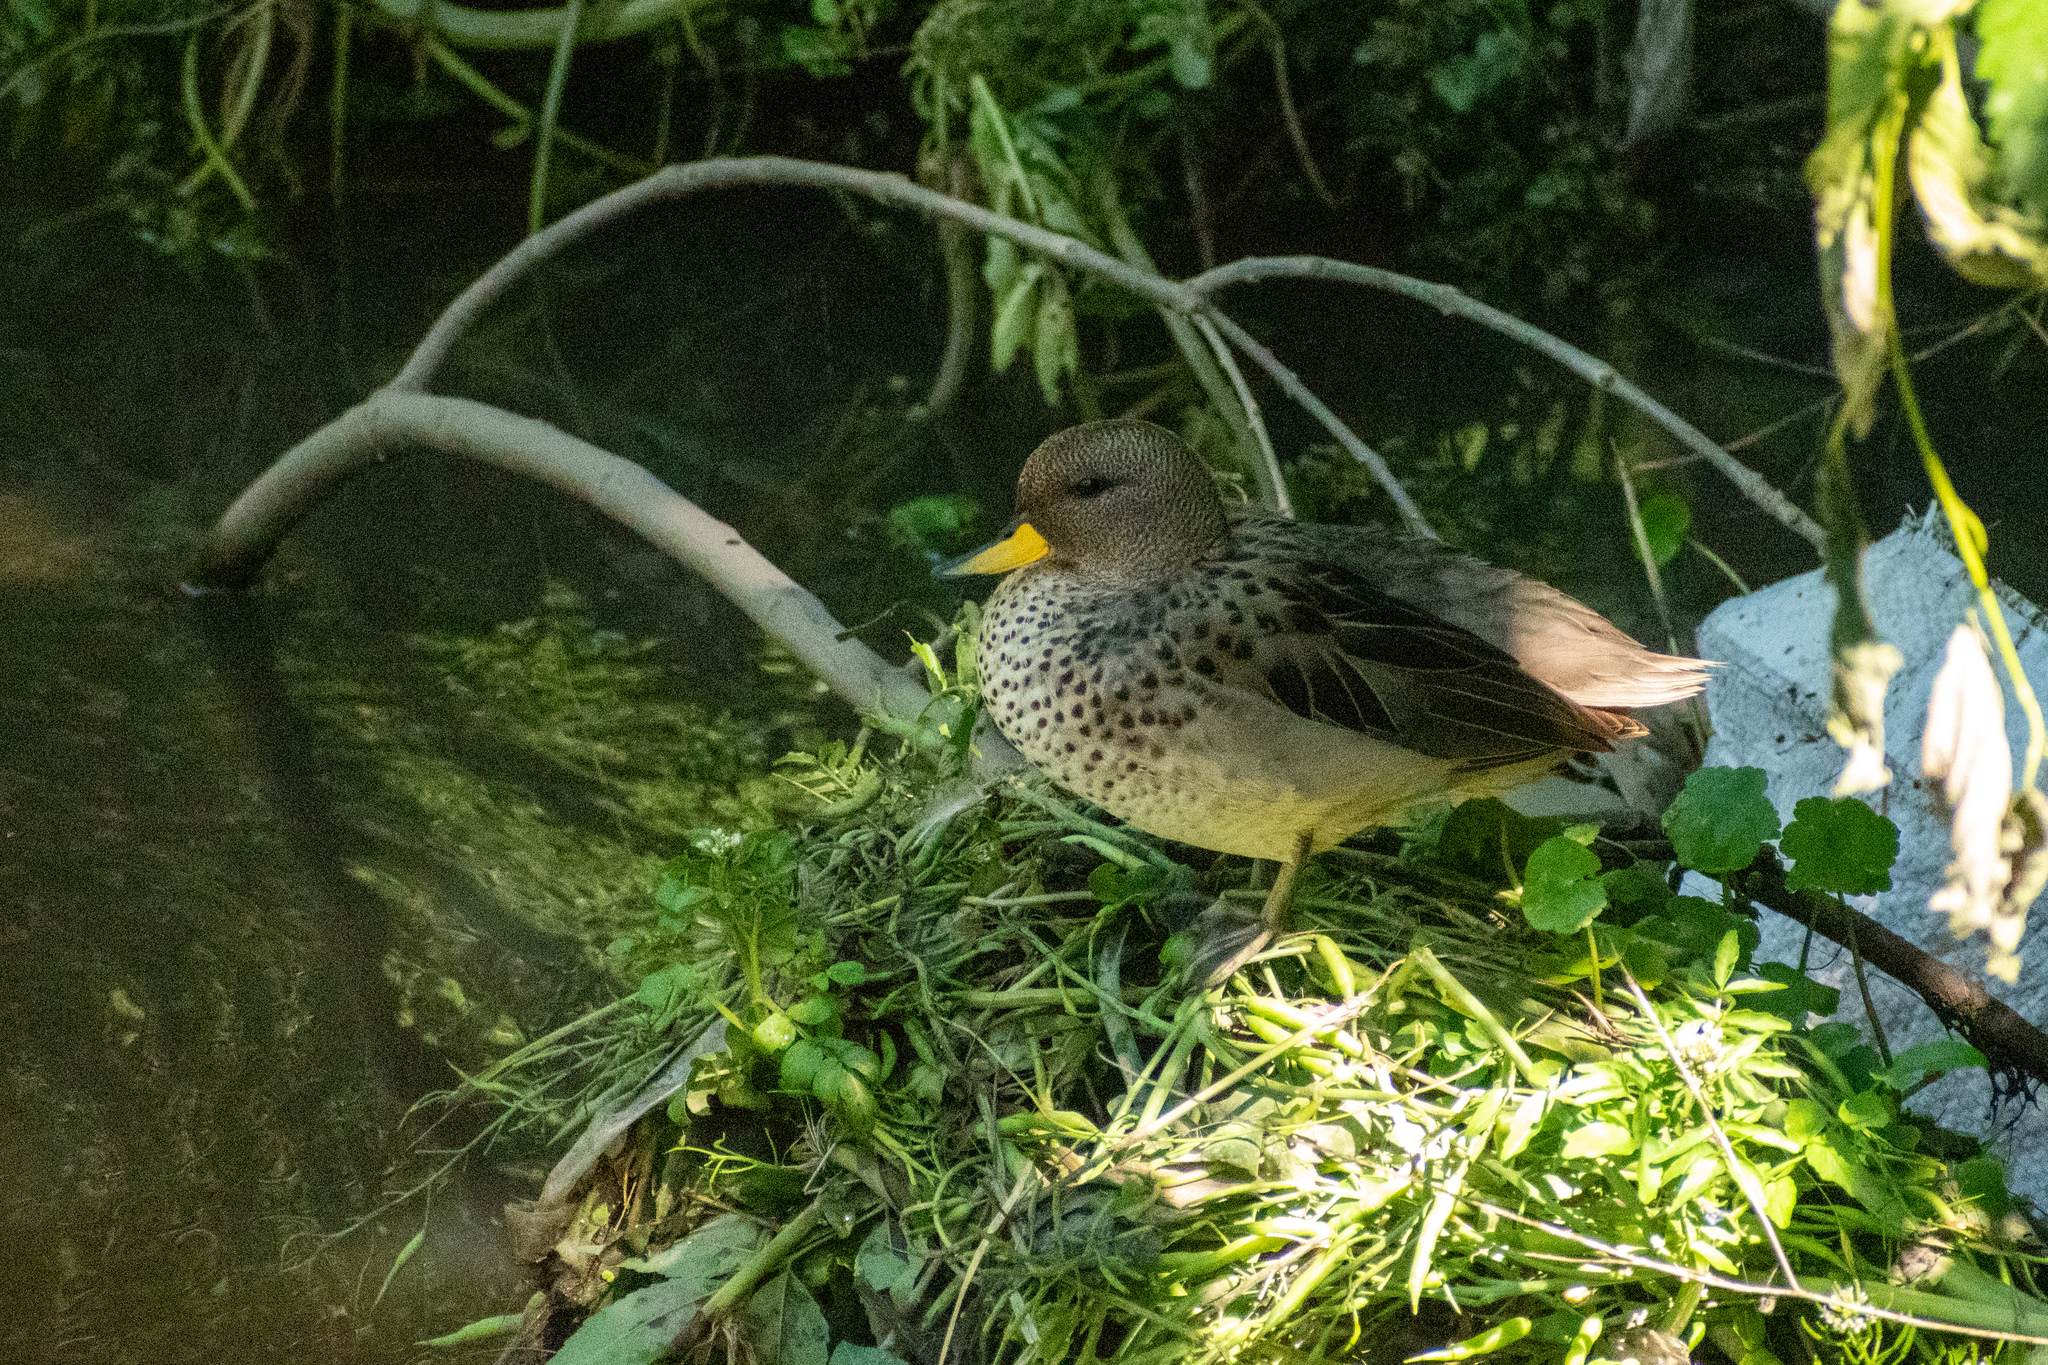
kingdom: Animalia
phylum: Chordata
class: Aves
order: Anseriformes
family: Anatidae
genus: Anas
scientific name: Anas flavirostris
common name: Yellow-billed teal
